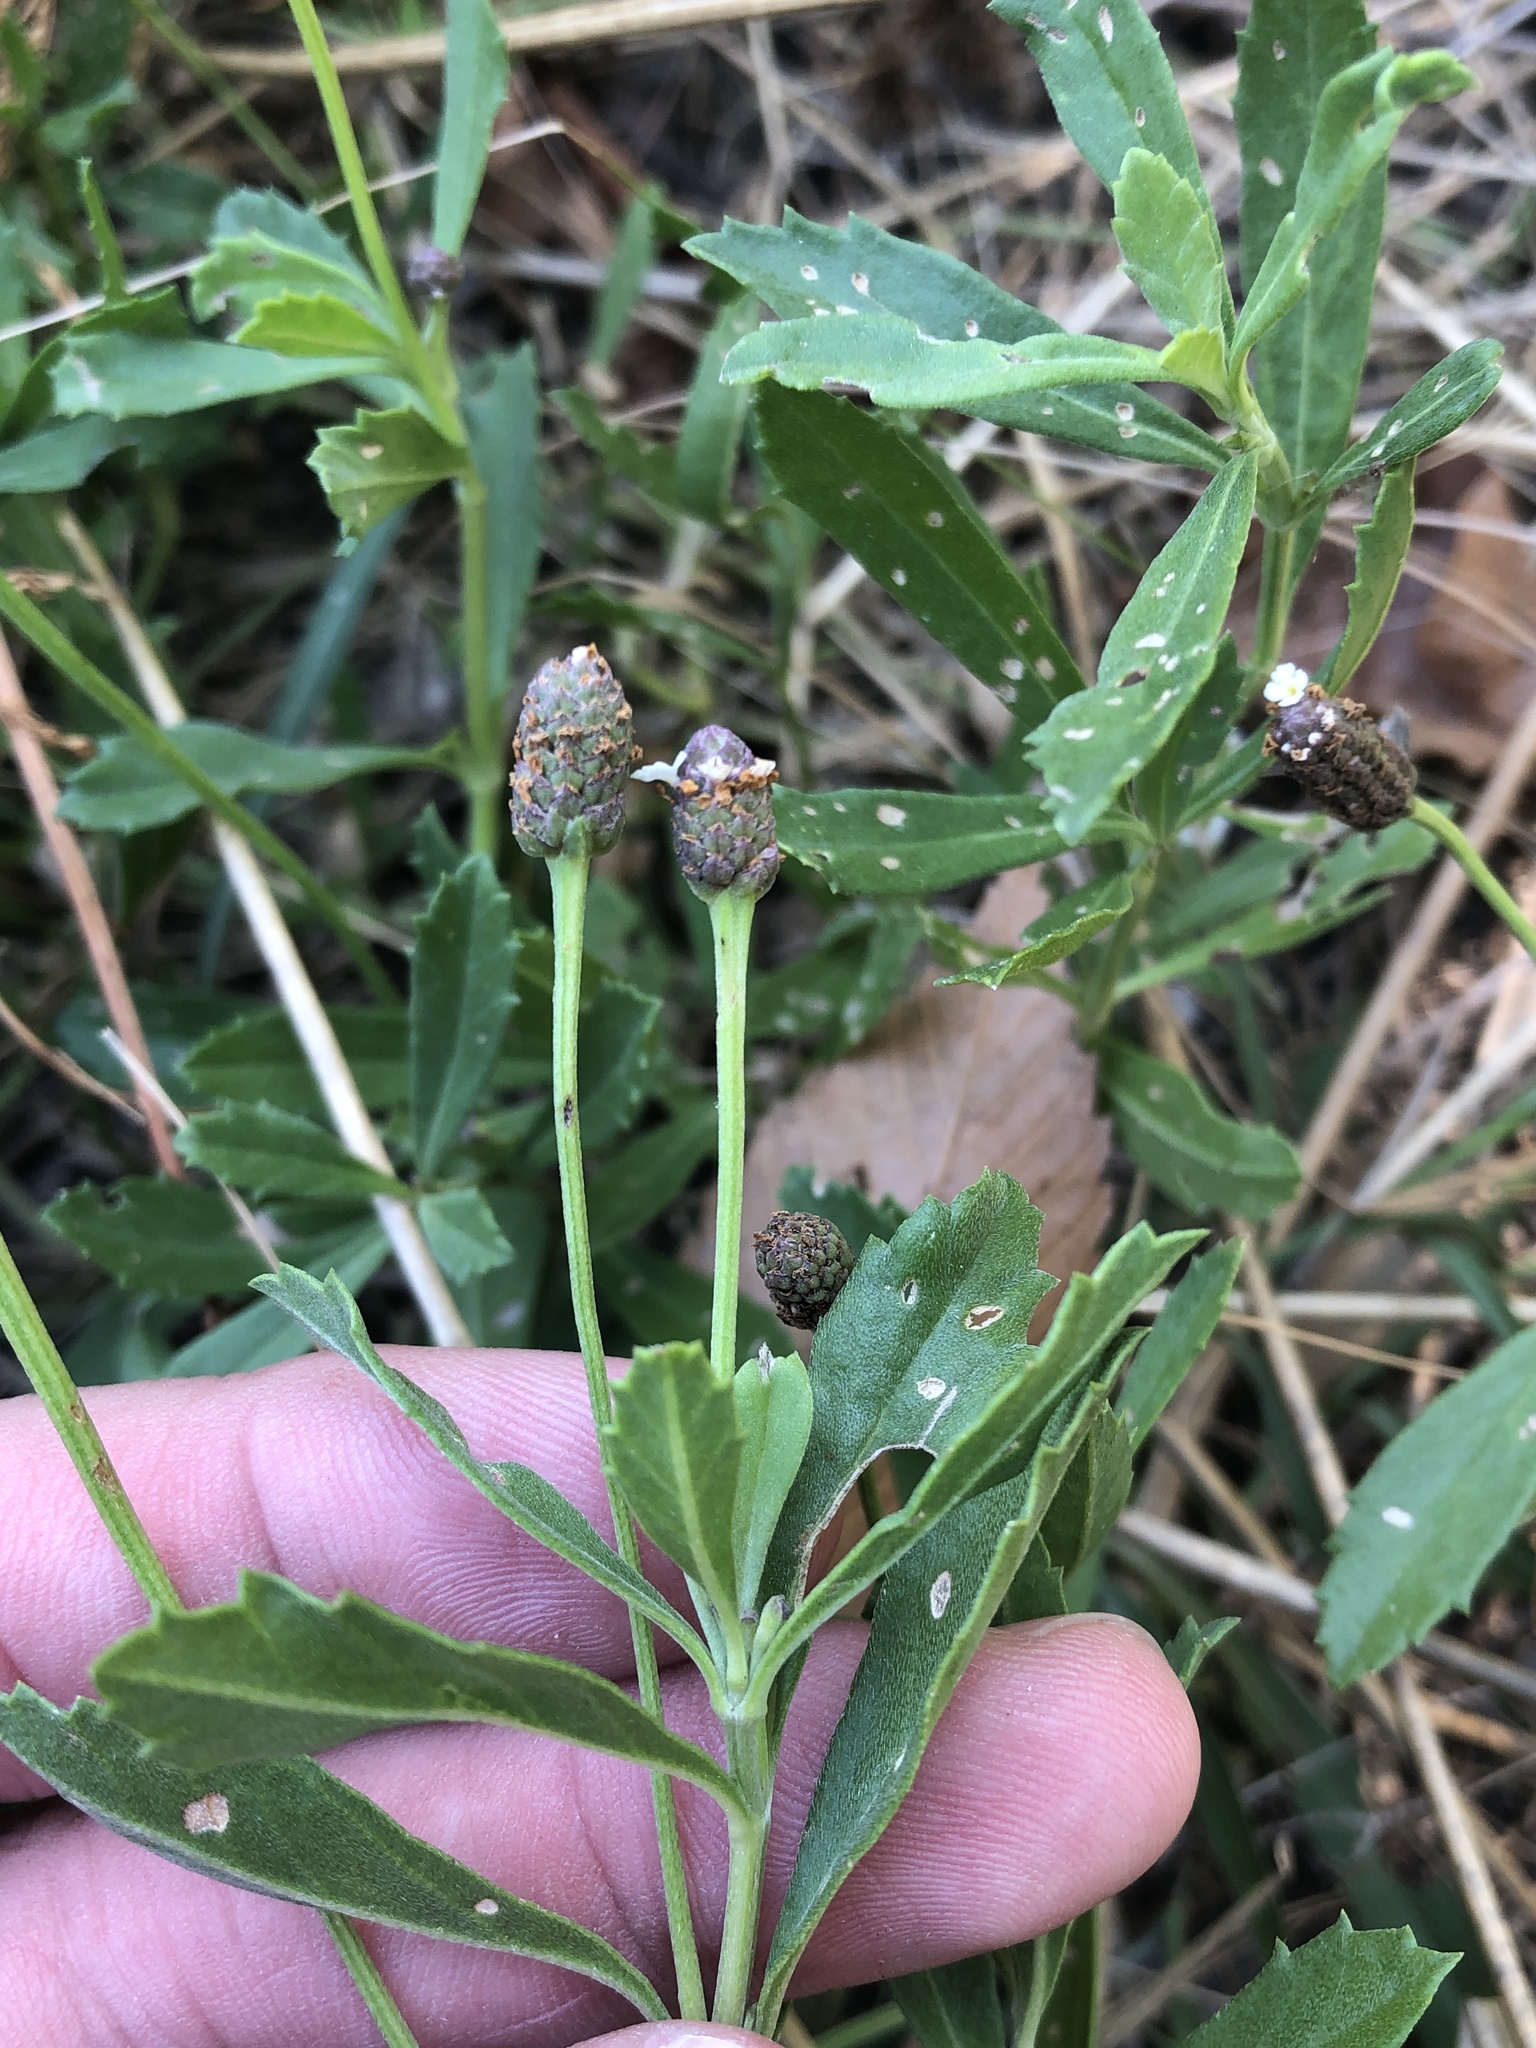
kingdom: Plantae
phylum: Tracheophyta
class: Magnoliopsida
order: Lamiales
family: Verbenaceae
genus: Phyla
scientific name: Phyla nodiflora
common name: Frogfruit
